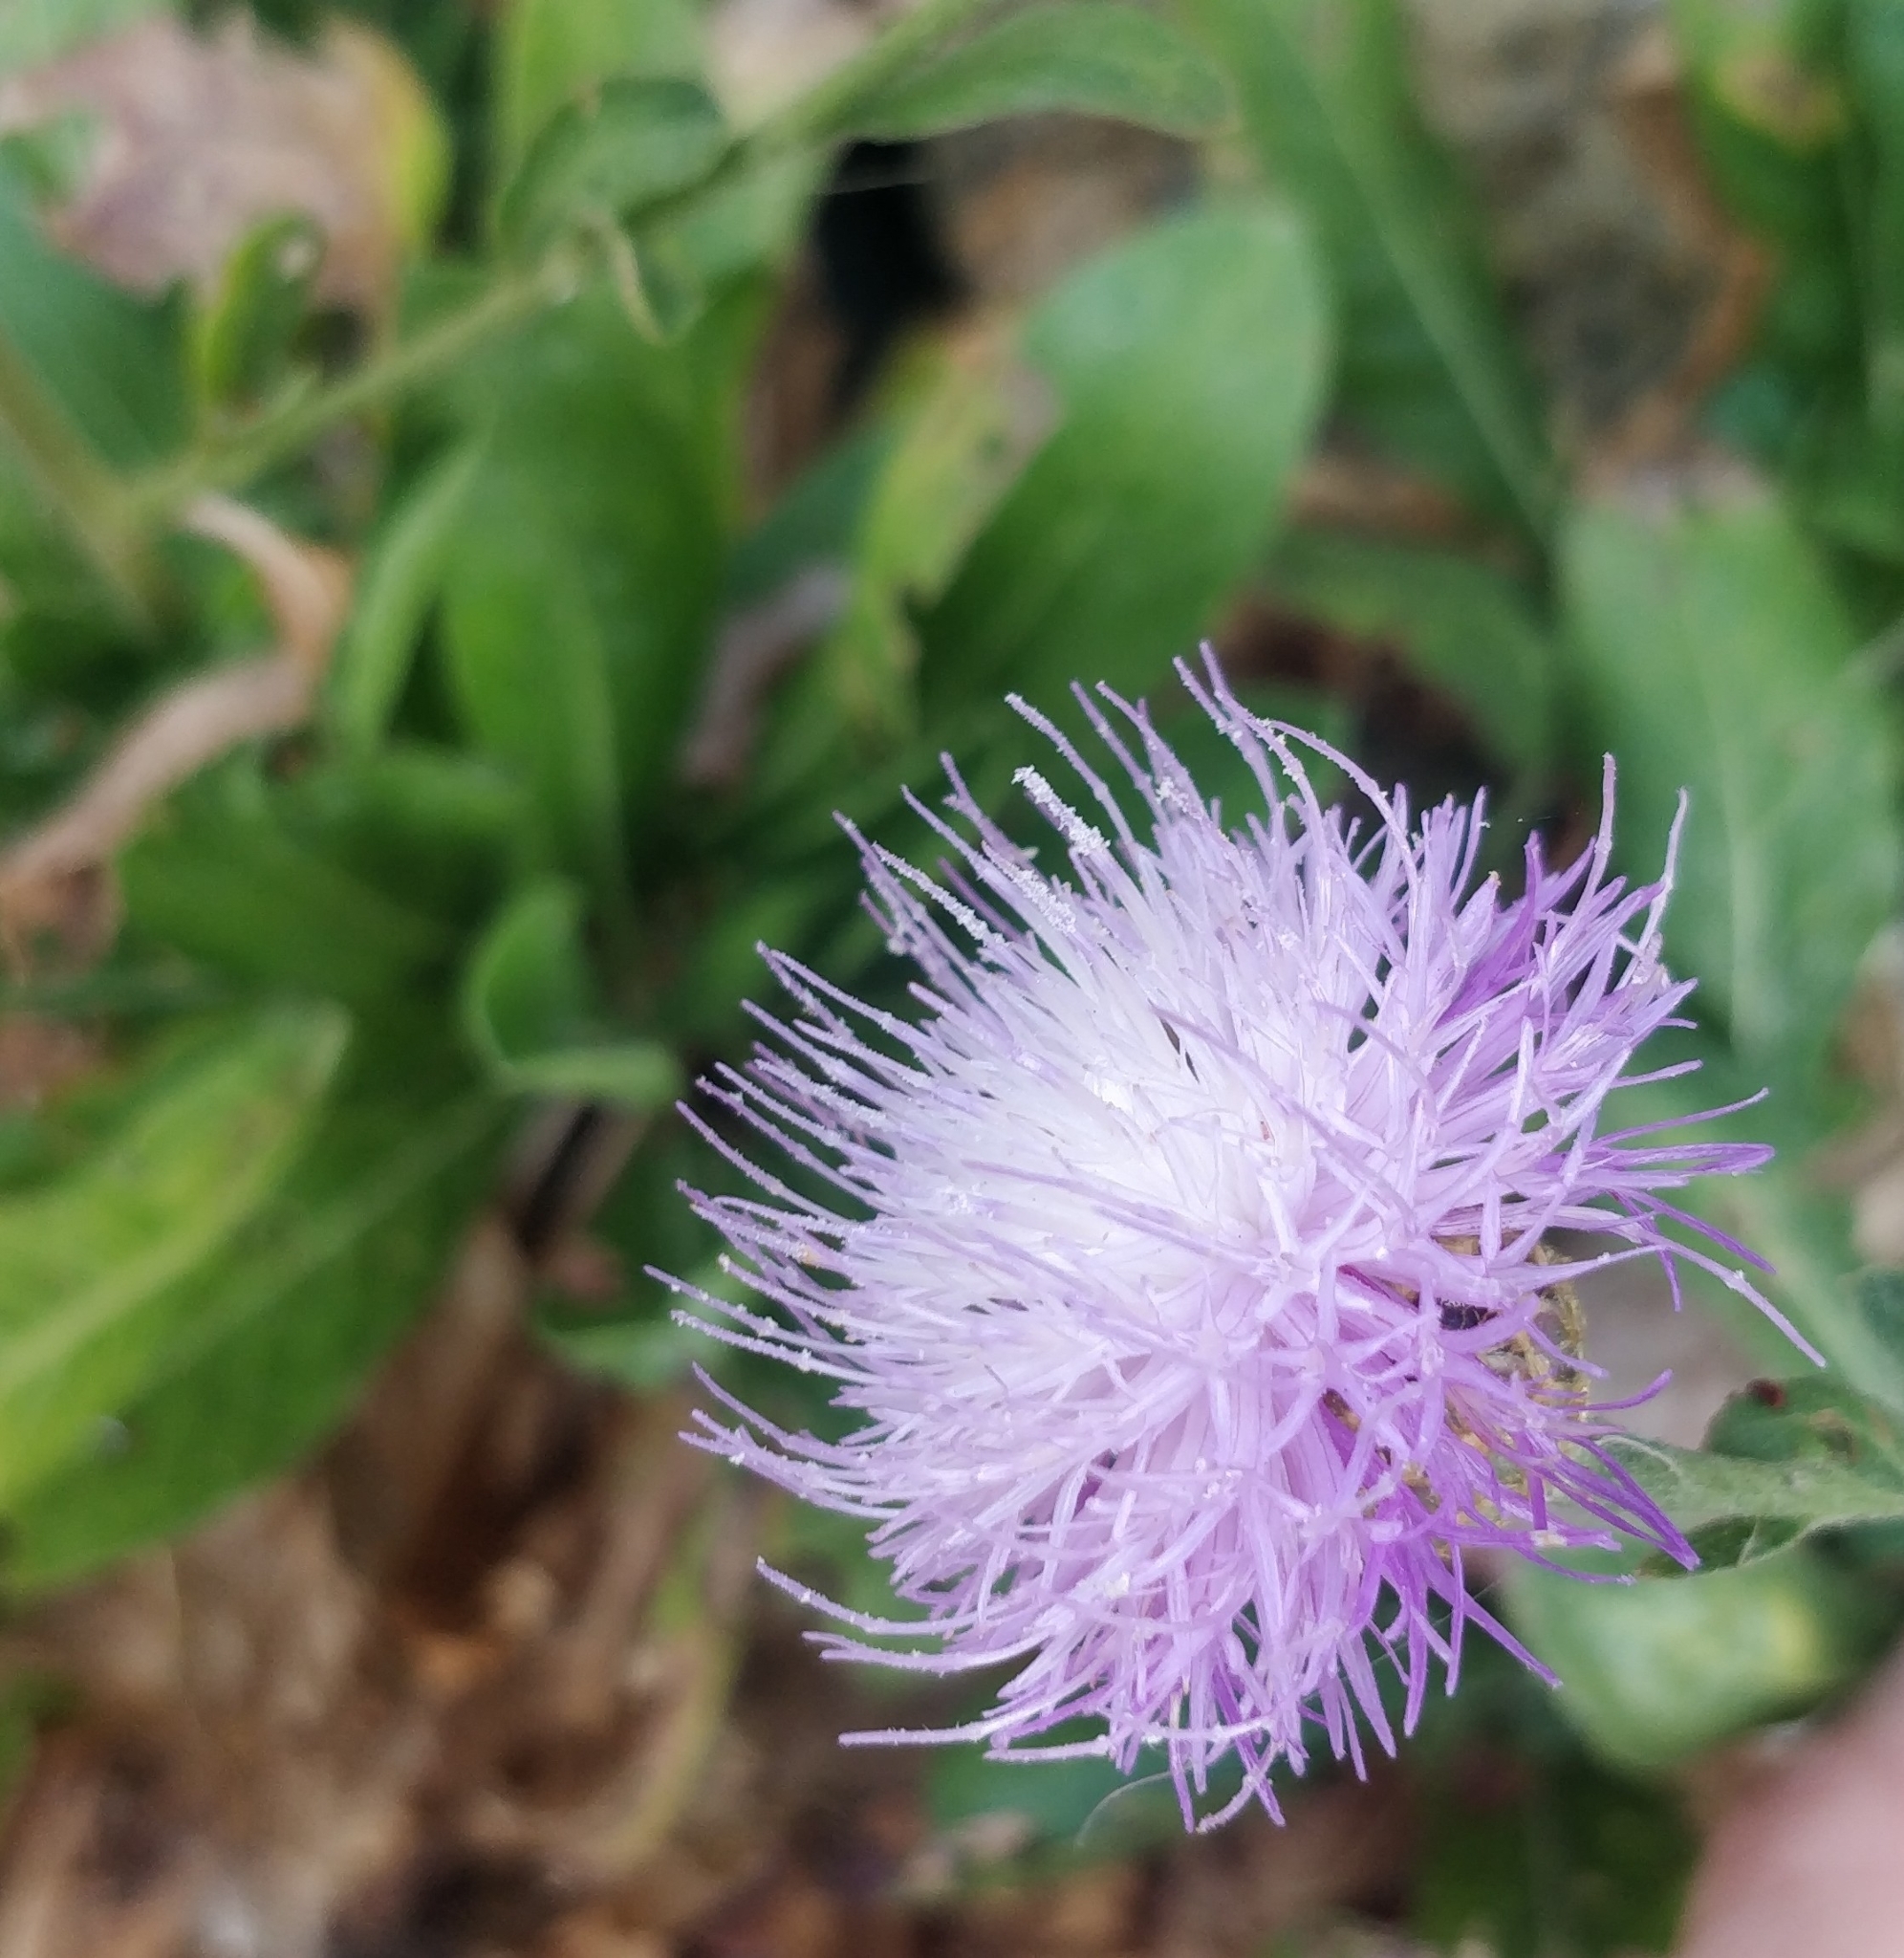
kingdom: Plantae
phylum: Tracheophyta
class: Magnoliopsida
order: Asterales
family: Asteraceae
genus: Cheirolophus
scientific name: Cheirolophus burchardii
